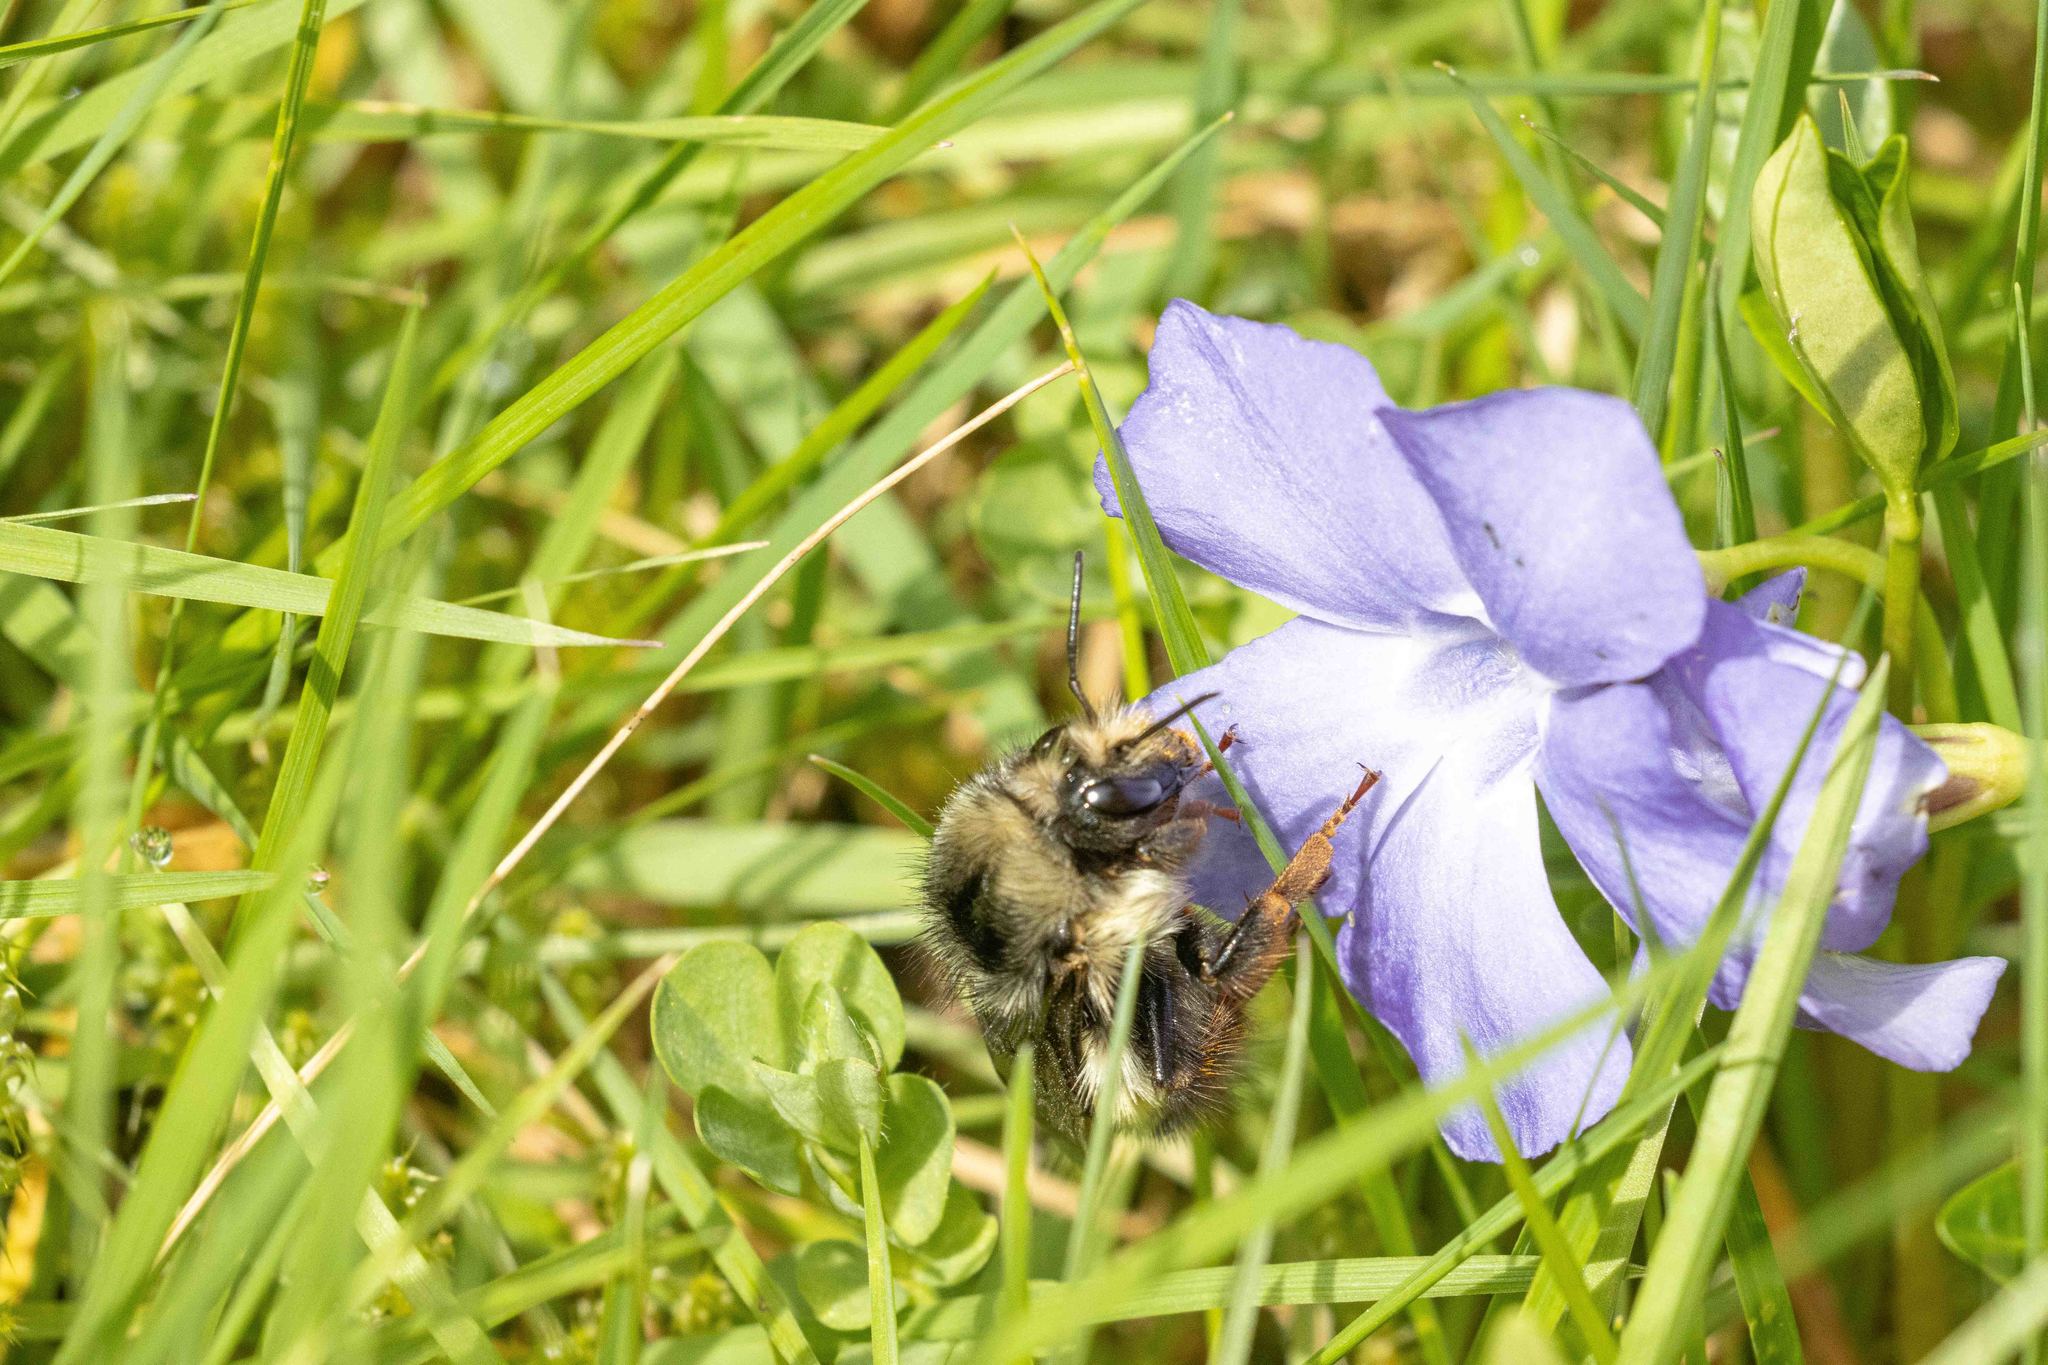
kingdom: Animalia
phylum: Arthropoda
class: Insecta
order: Hymenoptera
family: Apidae
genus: Bombus
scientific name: Bombus flavifrons
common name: Yellow head bumble bee
